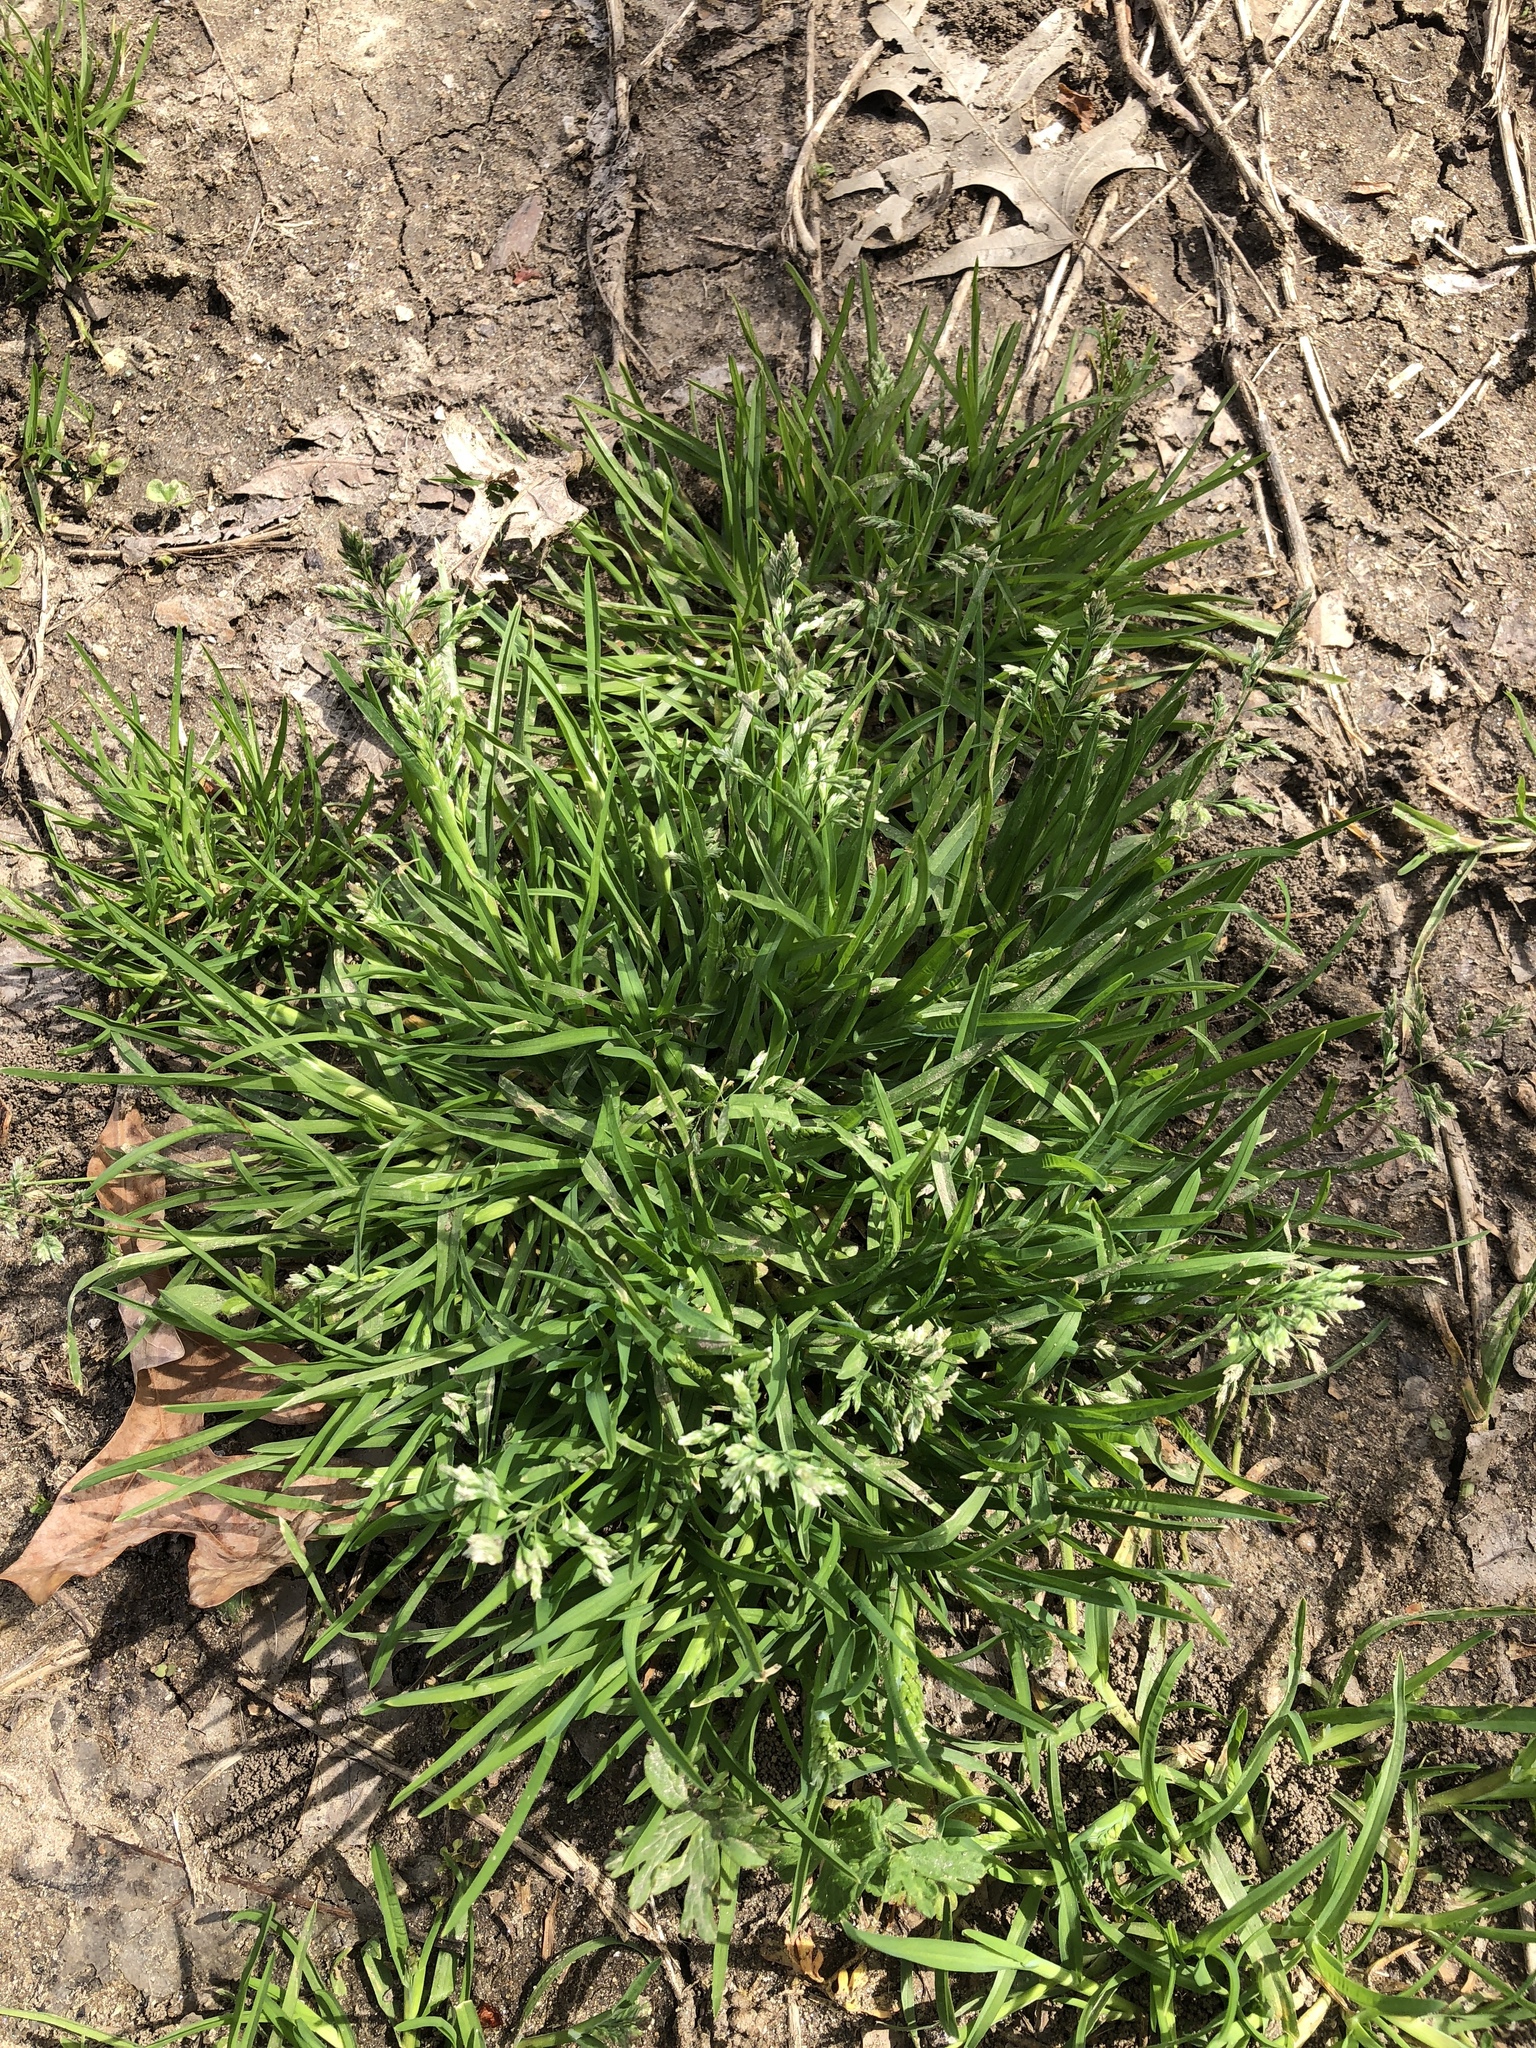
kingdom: Plantae
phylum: Tracheophyta
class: Liliopsida
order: Poales
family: Poaceae
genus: Poa
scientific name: Poa annua
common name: Annual bluegrass
